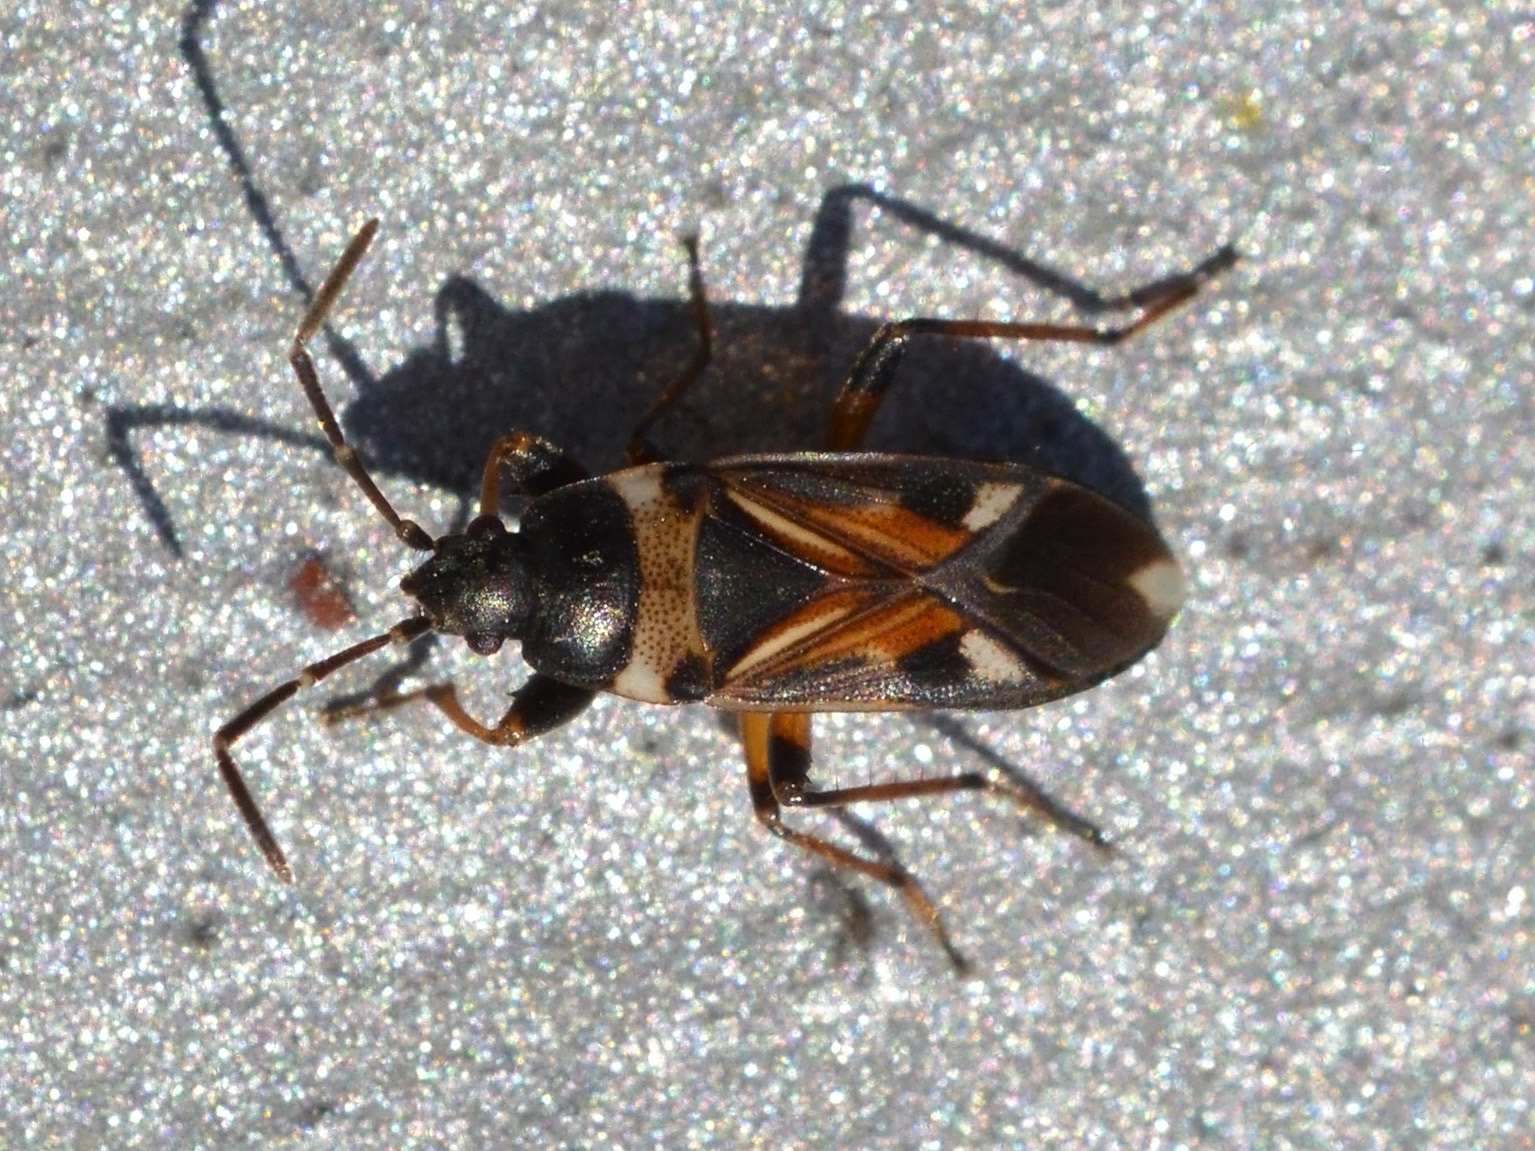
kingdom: Animalia
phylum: Arthropoda
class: Insecta
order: Hemiptera
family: Rhyparochromidae
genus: Raglius
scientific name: Raglius alboacuminatus
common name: Dirt-colored seed bug
